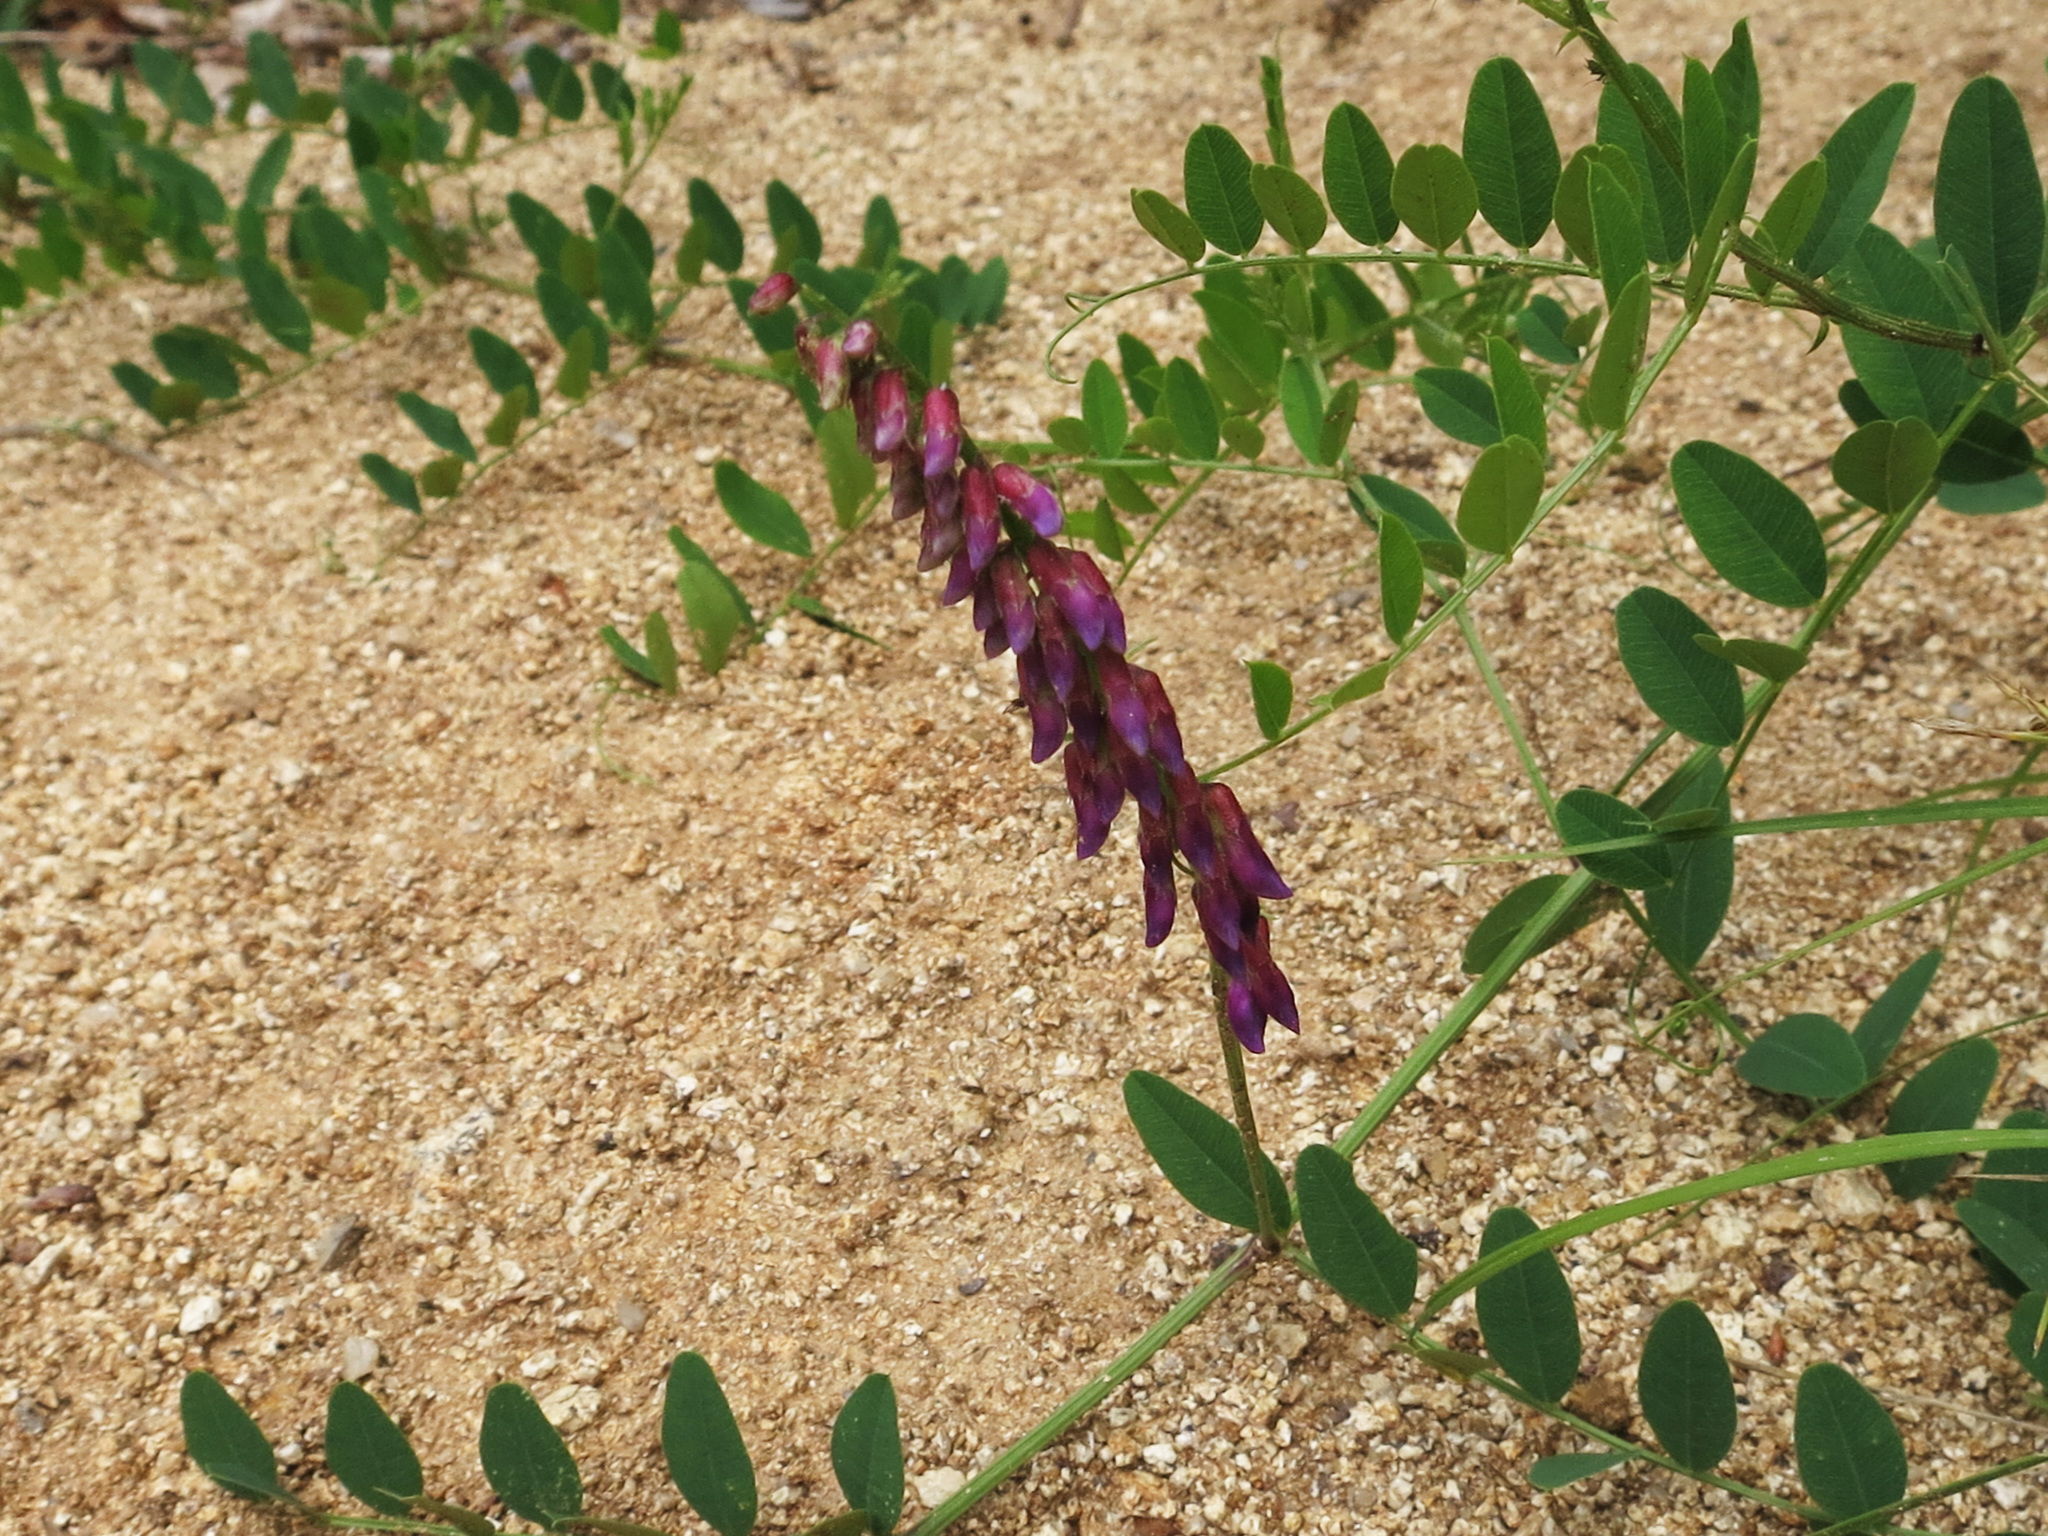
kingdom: Plantae
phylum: Tracheophyta
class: Magnoliopsida
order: Fabales
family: Fabaceae
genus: Vicia
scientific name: Vicia amurensis
